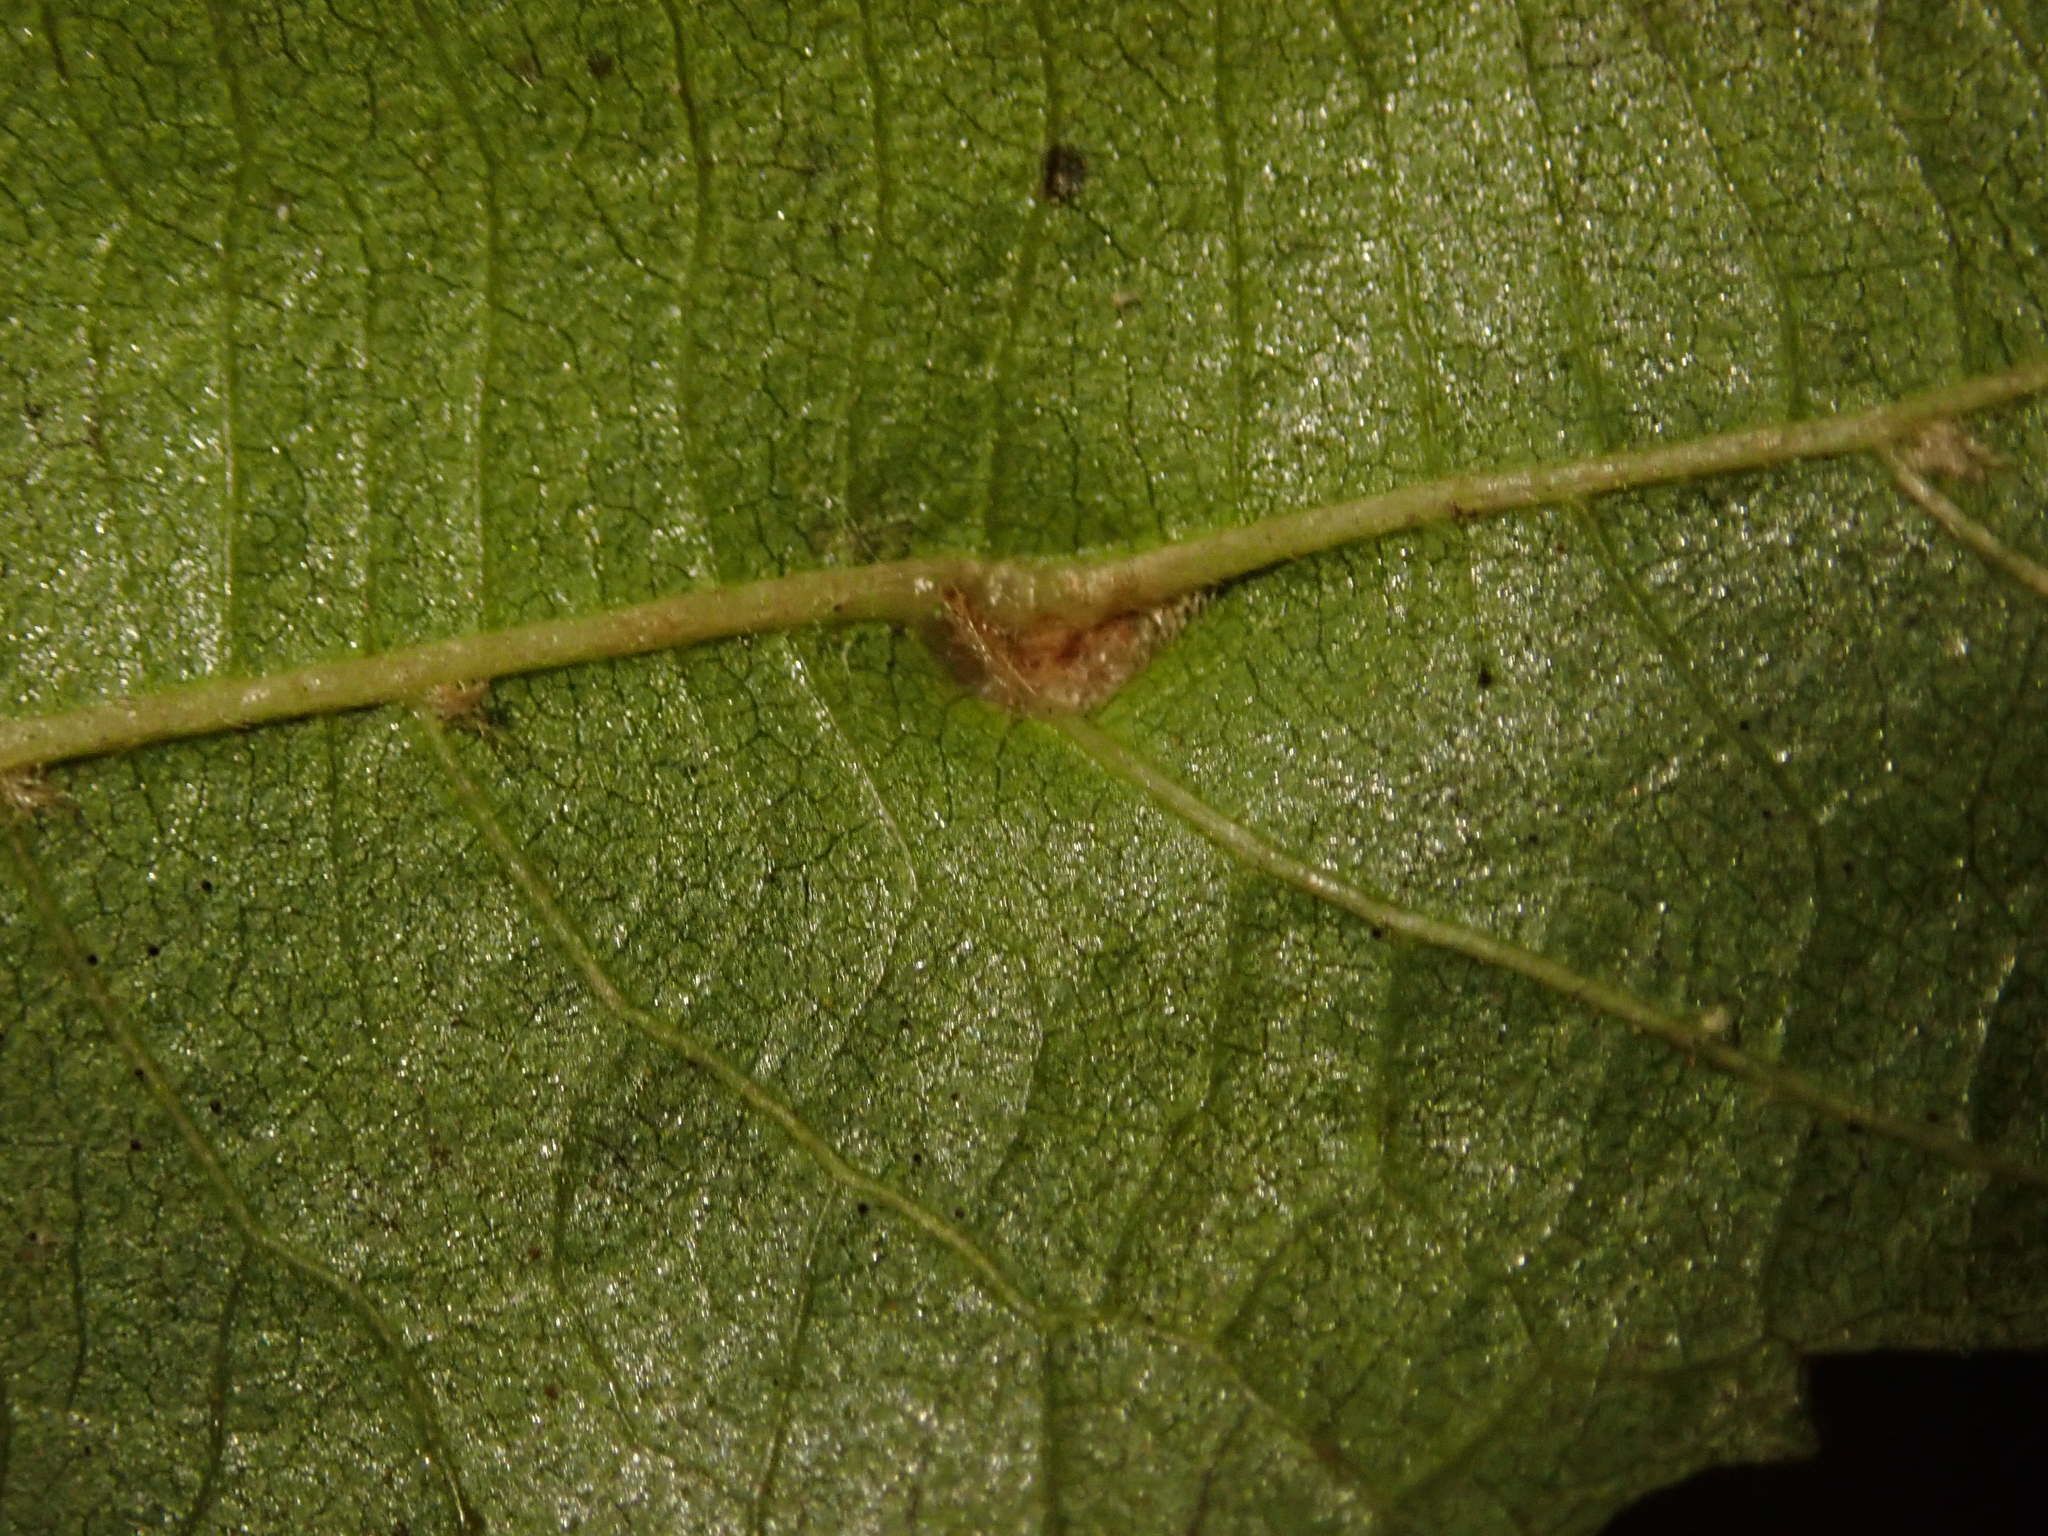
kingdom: Animalia
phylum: Arthropoda
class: Arachnida
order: Trombidiformes
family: Eriophyidae
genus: Eriophyes
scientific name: Eriophyes inangulis
